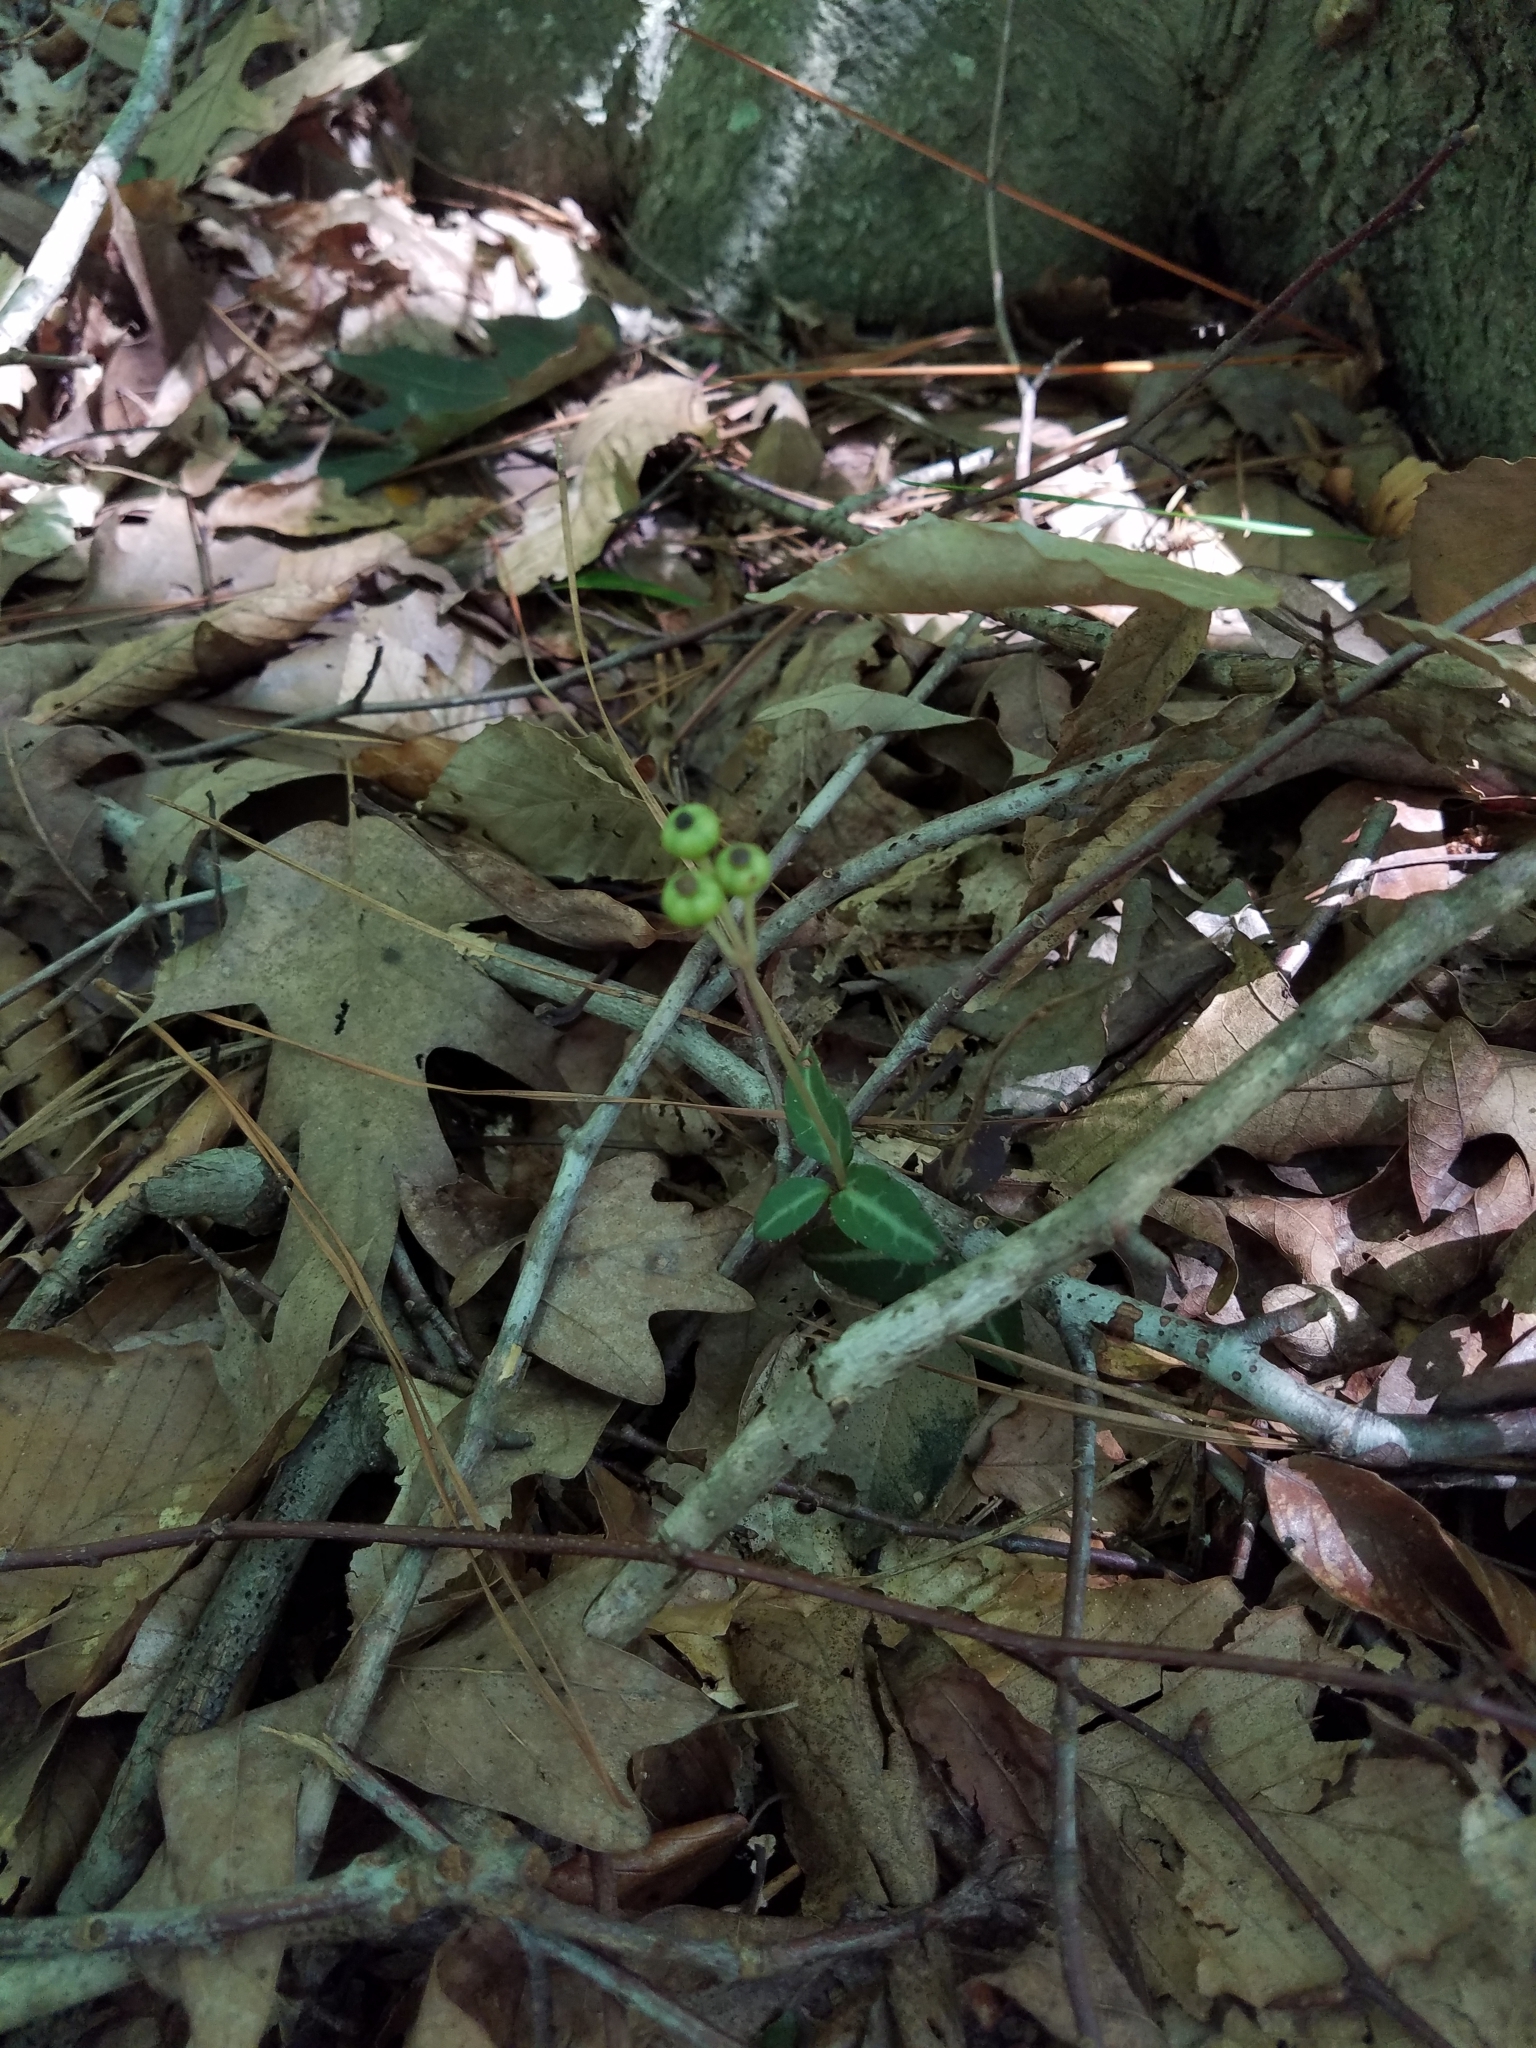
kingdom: Plantae
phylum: Tracheophyta
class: Magnoliopsida
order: Ericales
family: Ericaceae
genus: Chimaphila
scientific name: Chimaphila maculata
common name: Spotted pipsissewa
